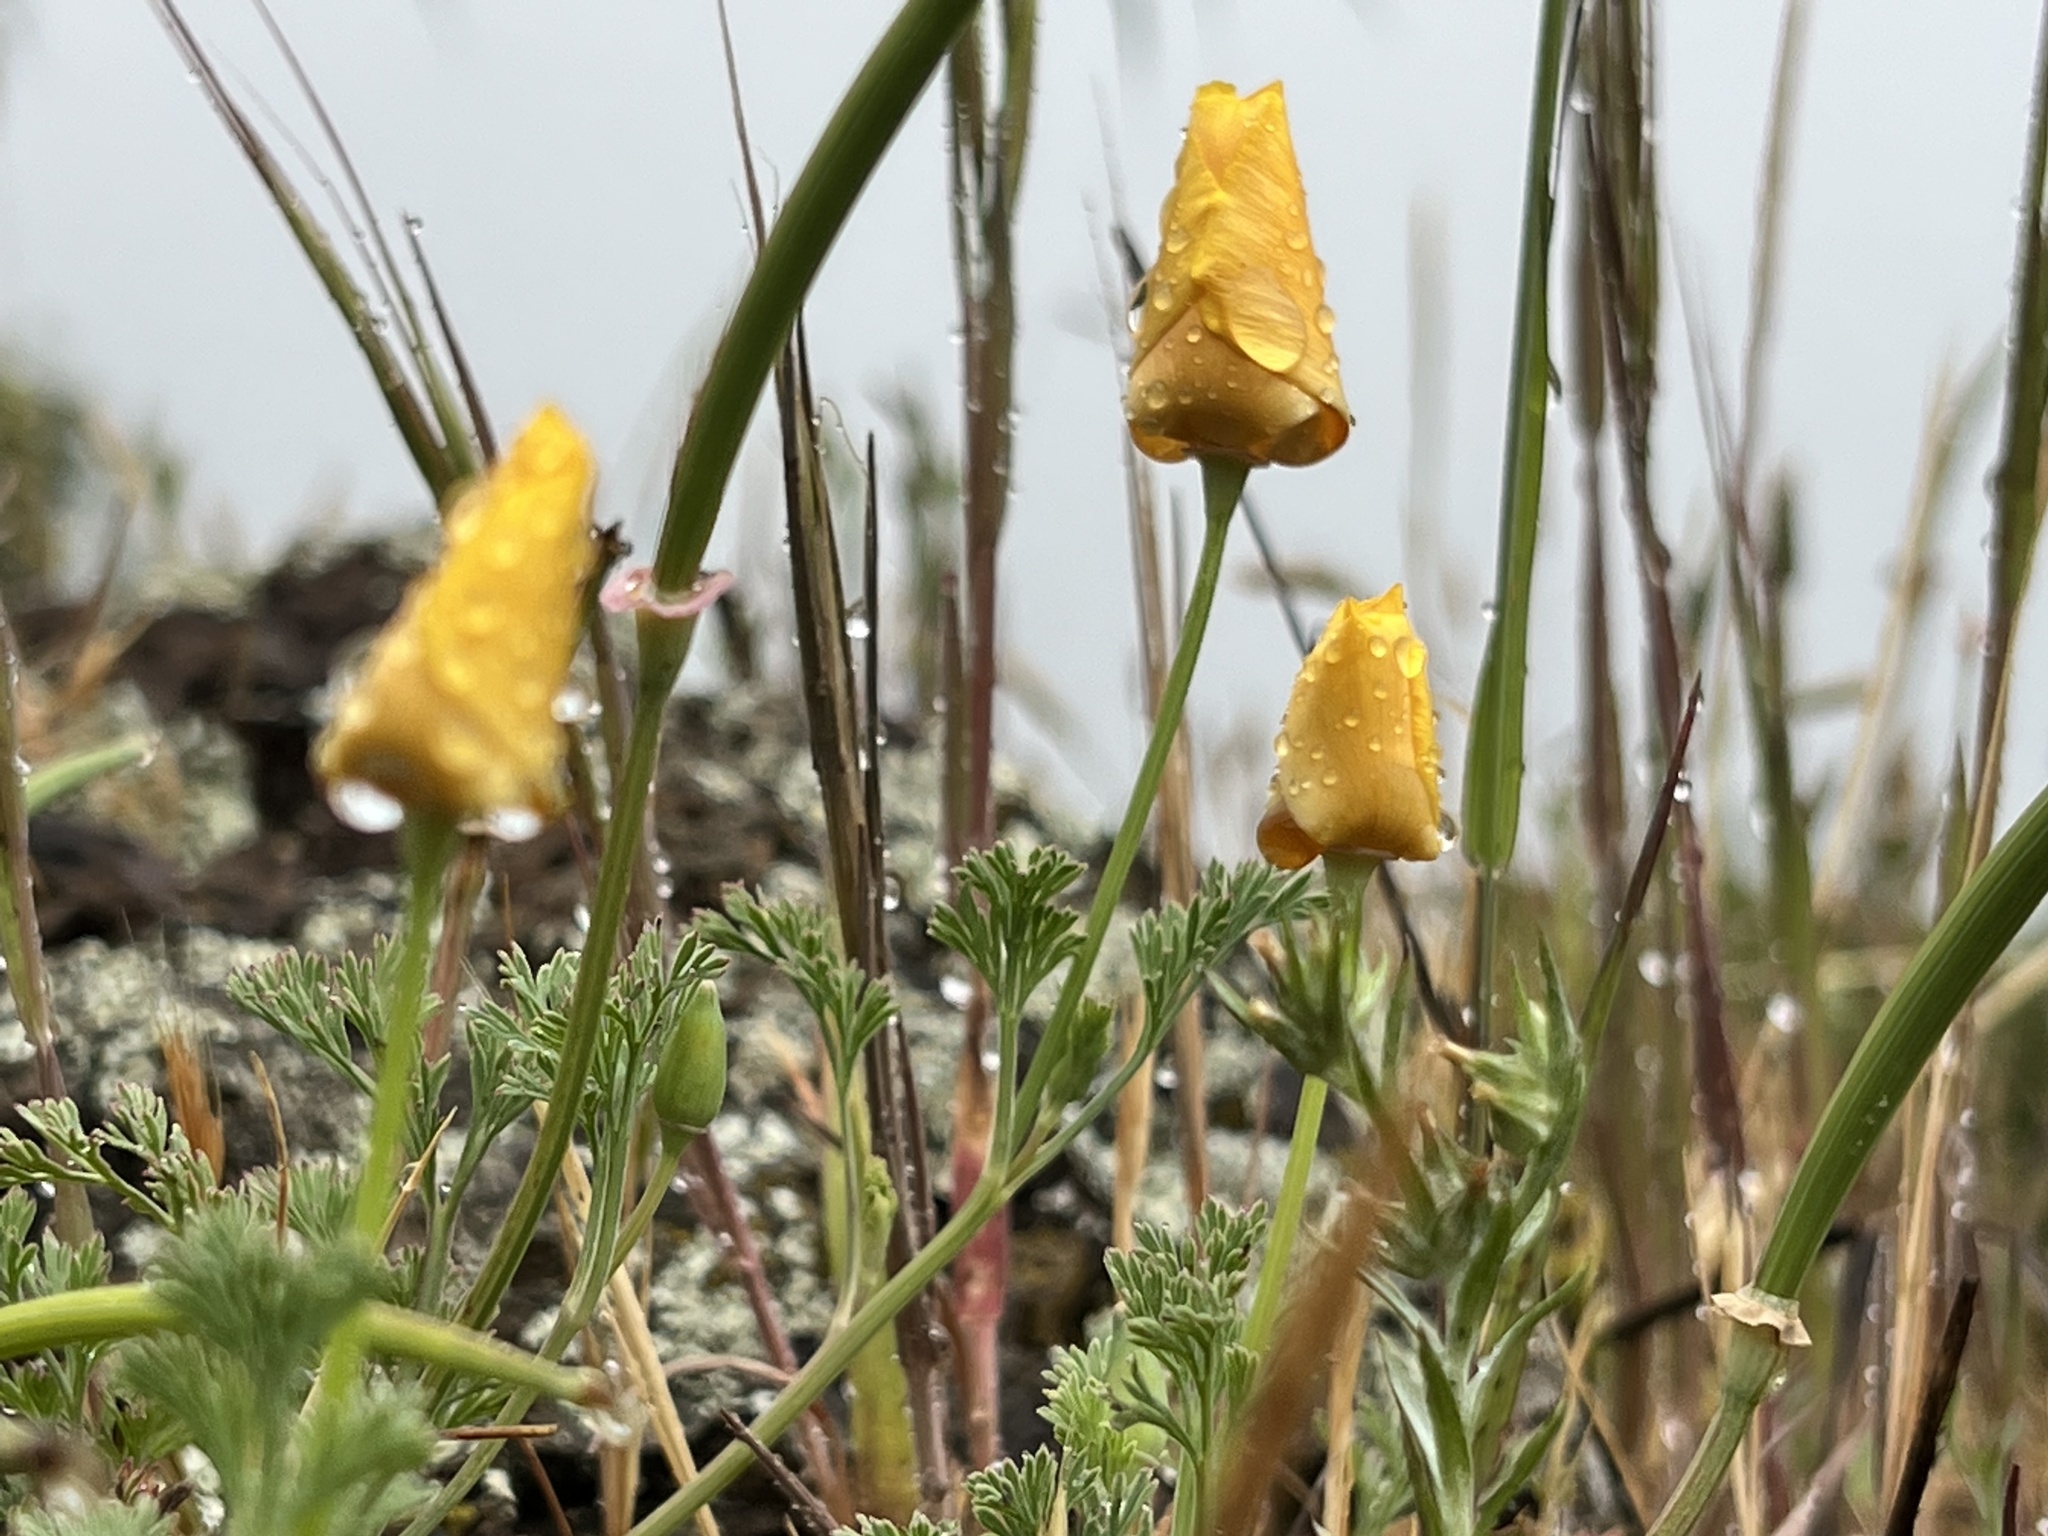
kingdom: Plantae
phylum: Tracheophyta
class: Magnoliopsida
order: Ranunculales
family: Papaveraceae
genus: Eschscholzia
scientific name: Eschscholzia californica
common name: California poppy
